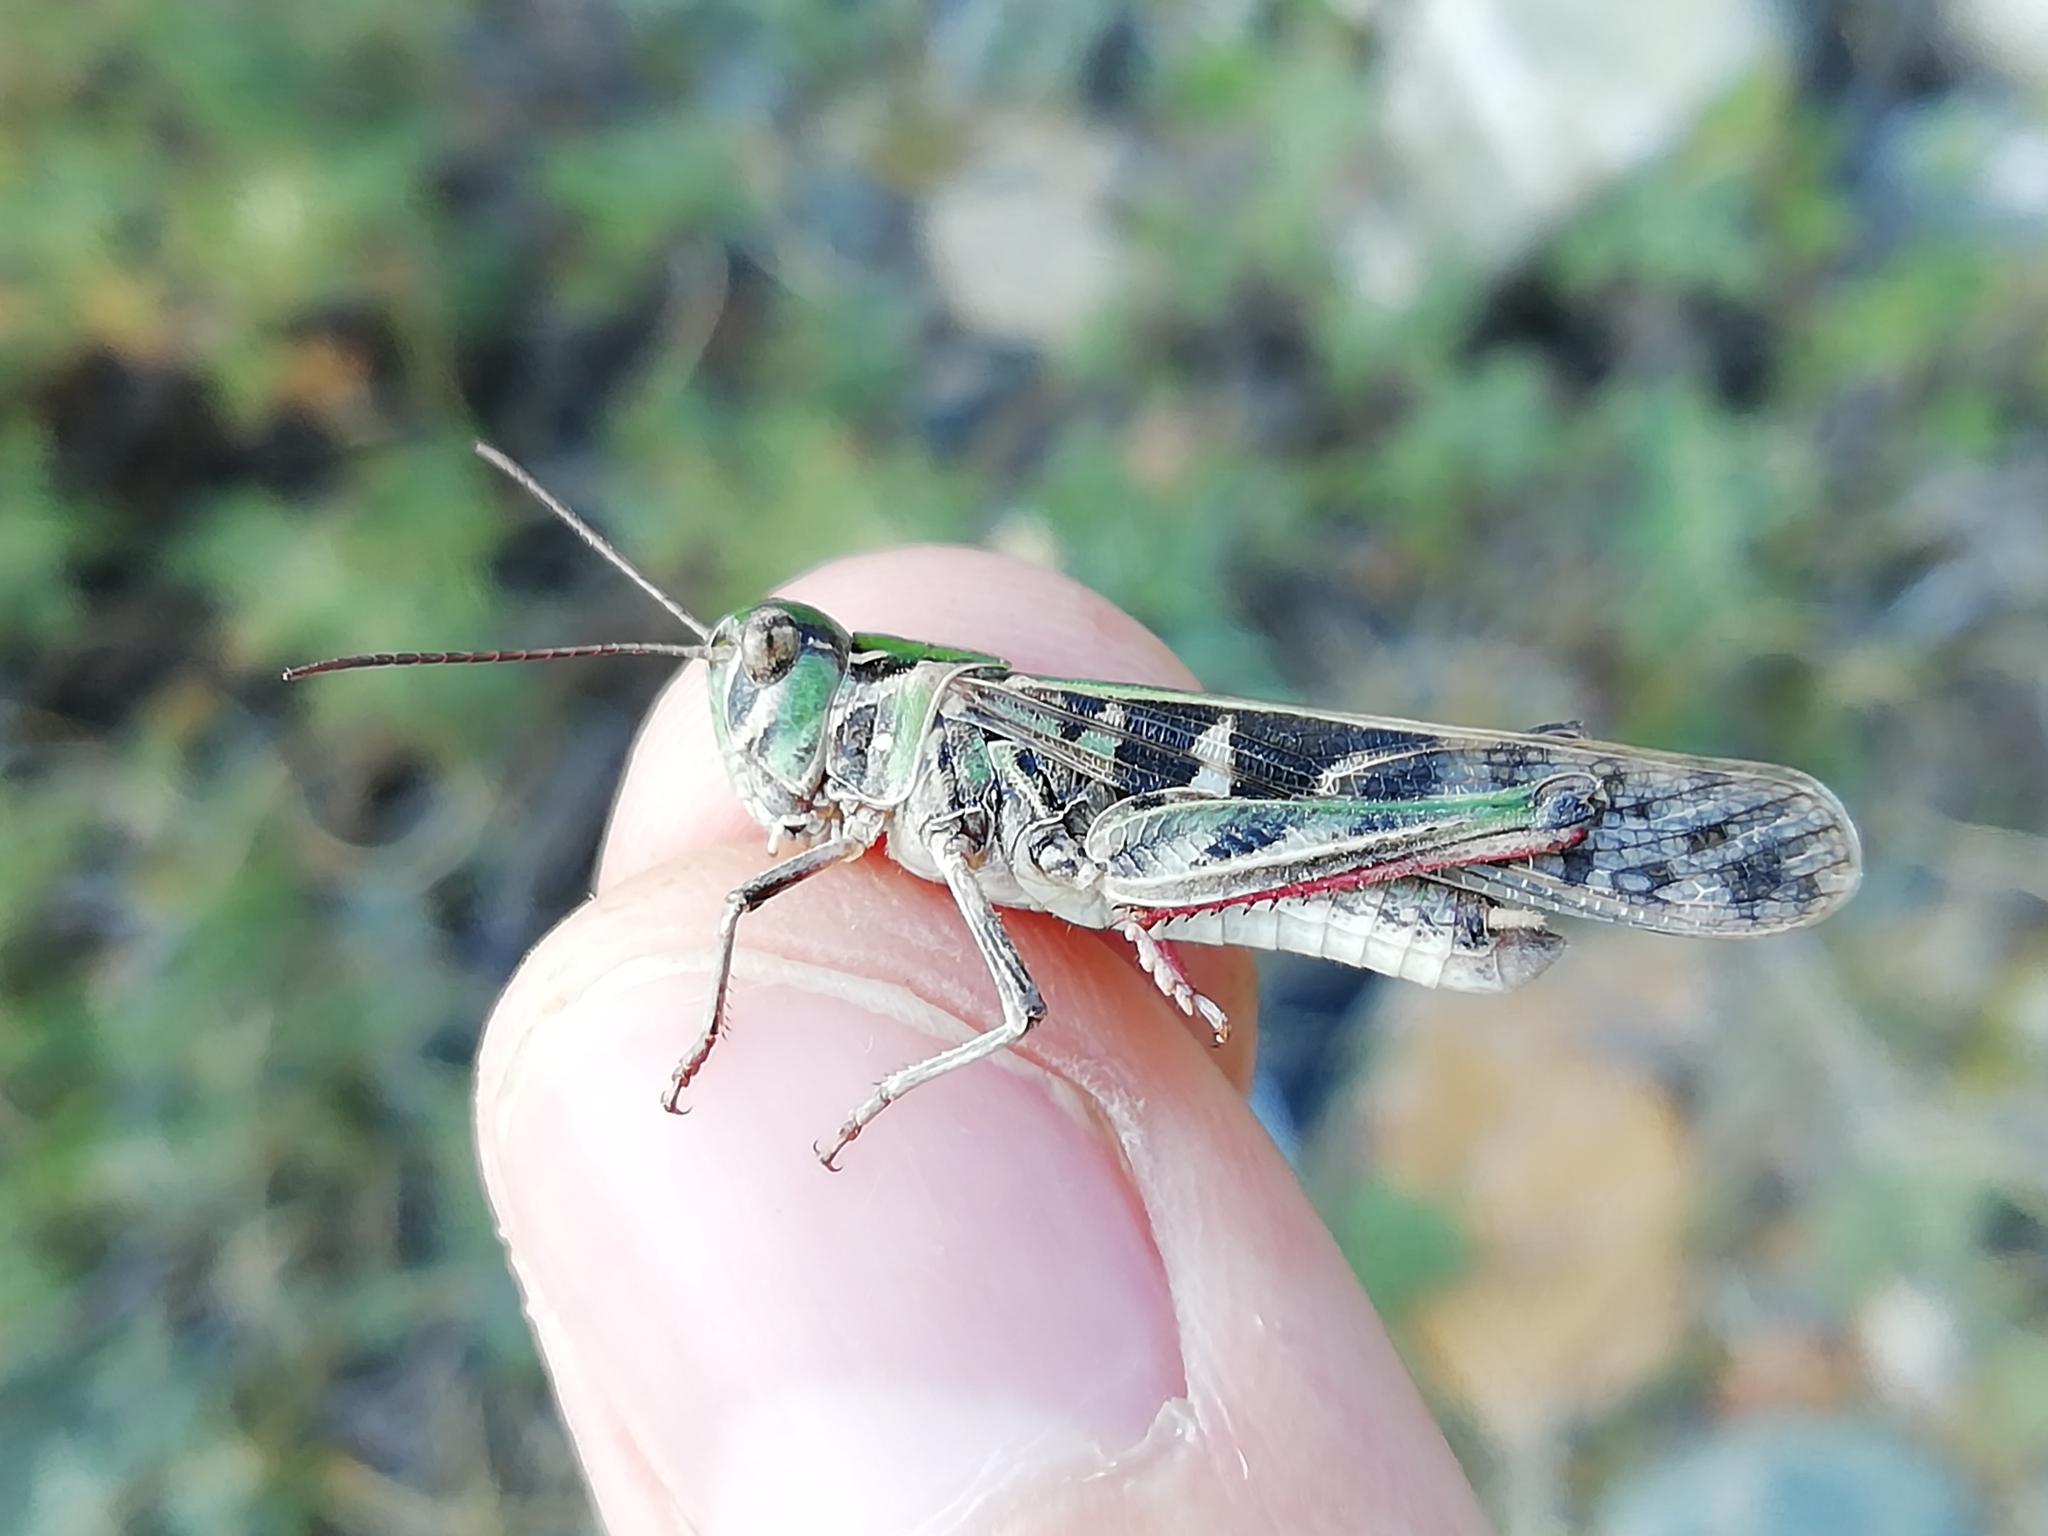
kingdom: Animalia
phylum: Arthropoda
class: Insecta
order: Orthoptera
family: Acrididae
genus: Oedaleus
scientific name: Oedaleus decorus
